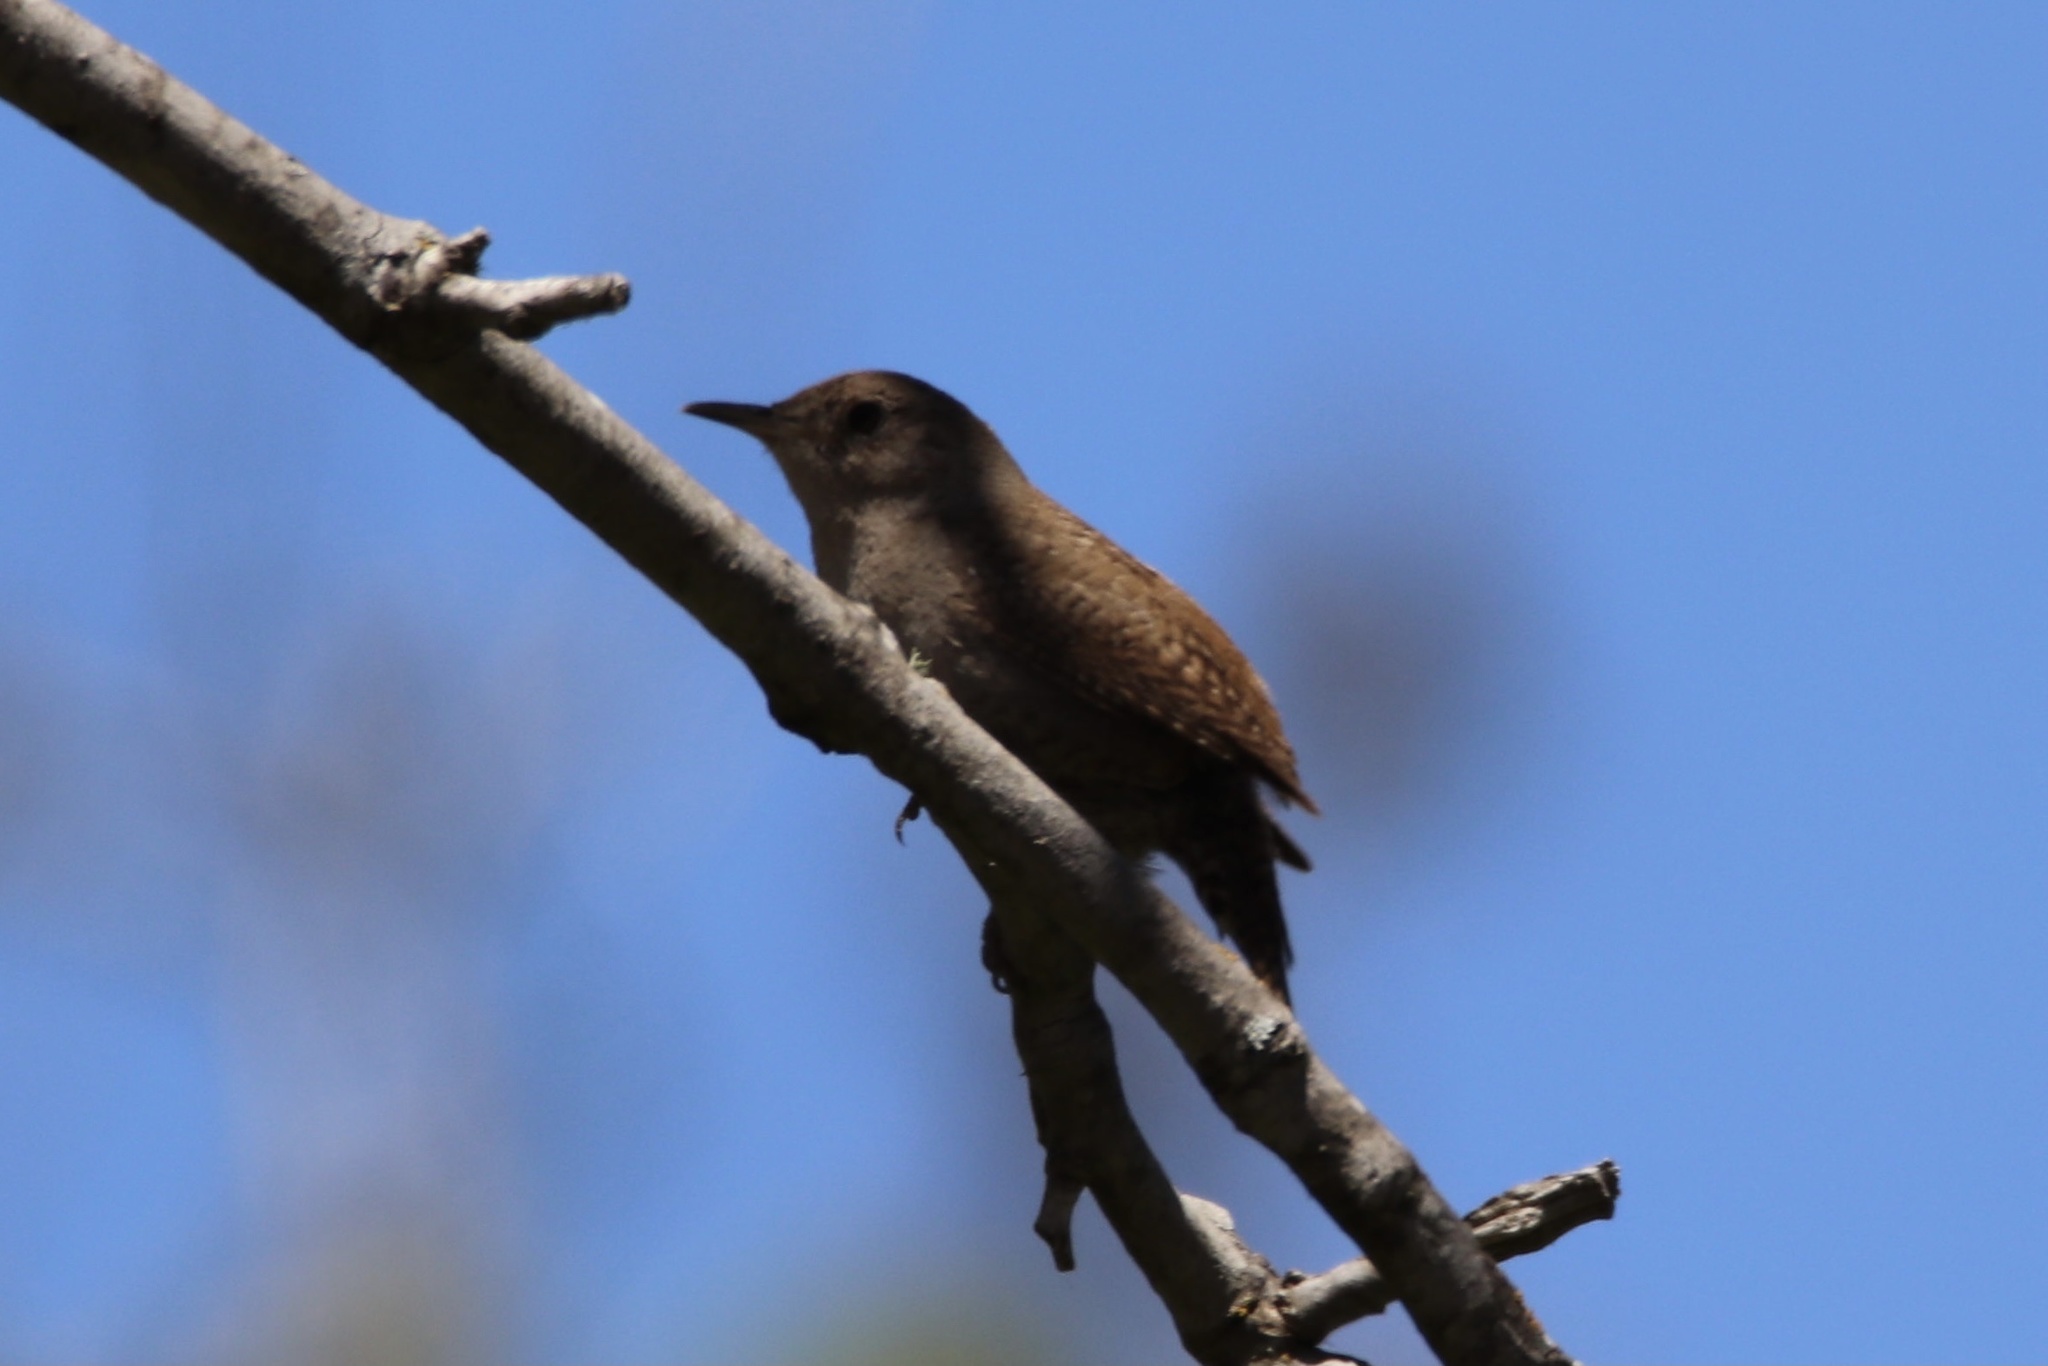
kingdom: Animalia
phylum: Chordata
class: Aves
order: Passeriformes
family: Troglodytidae
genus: Troglodytes
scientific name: Troglodytes aedon
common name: House wren
